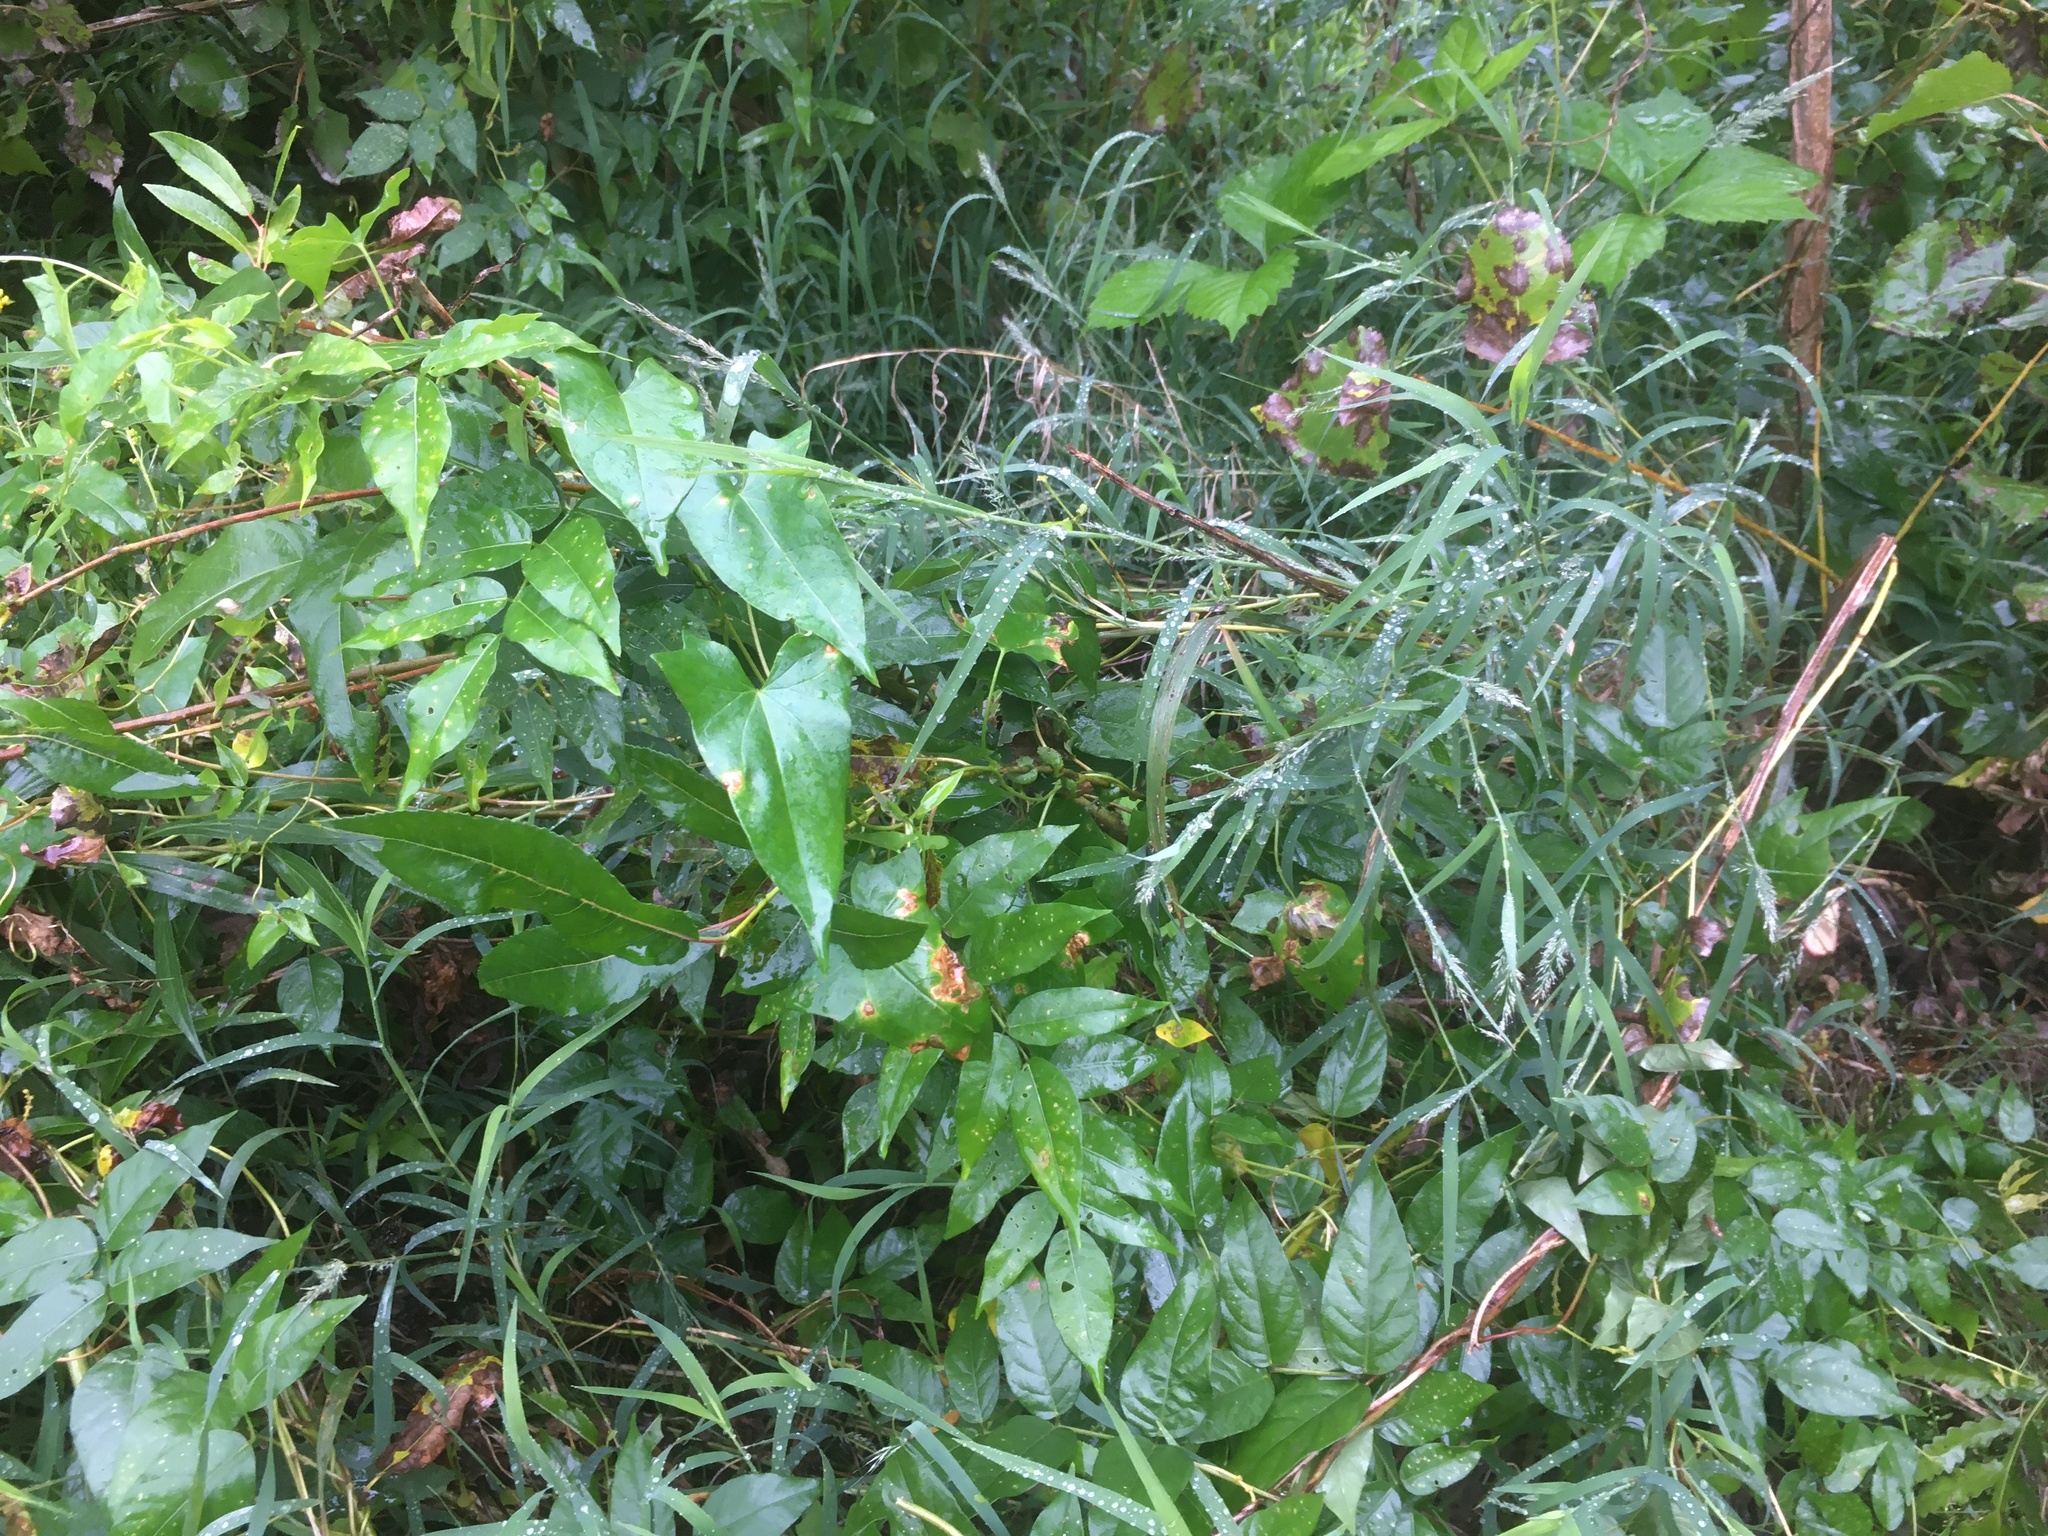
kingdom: Plantae
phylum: Tracheophyta
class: Magnoliopsida
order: Fabales
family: Fabaceae
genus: Apios
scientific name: Apios americana
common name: American potato-bean
